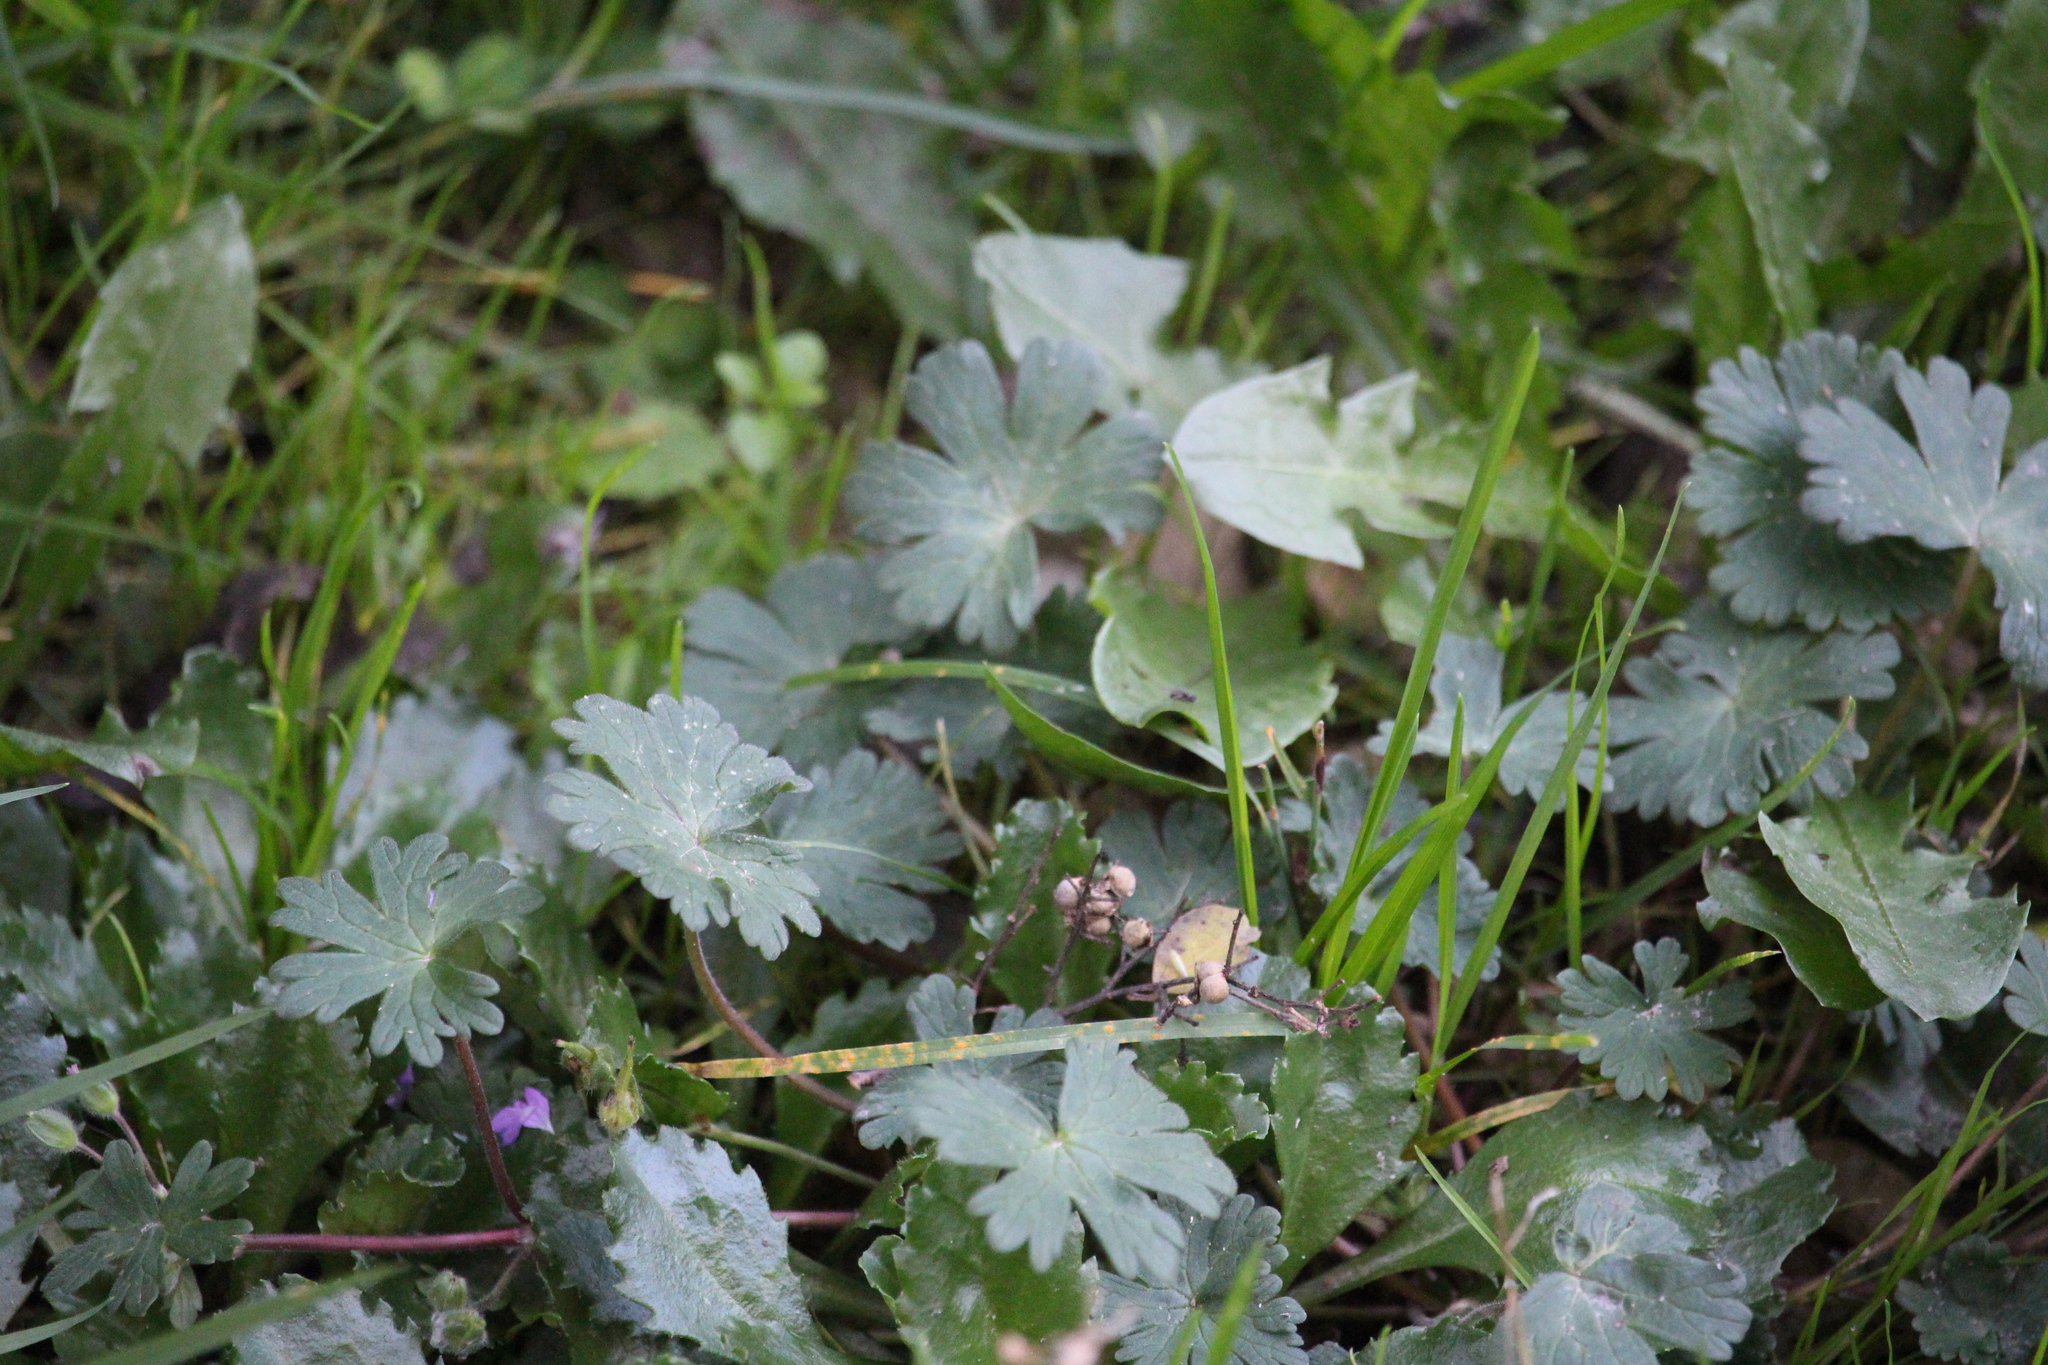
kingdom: Plantae
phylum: Tracheophyta
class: Magnoliopsida
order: Geraniales
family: Geraniaceae
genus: Geranium
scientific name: Geranium molle
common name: Dove's-foot crane's-bill
